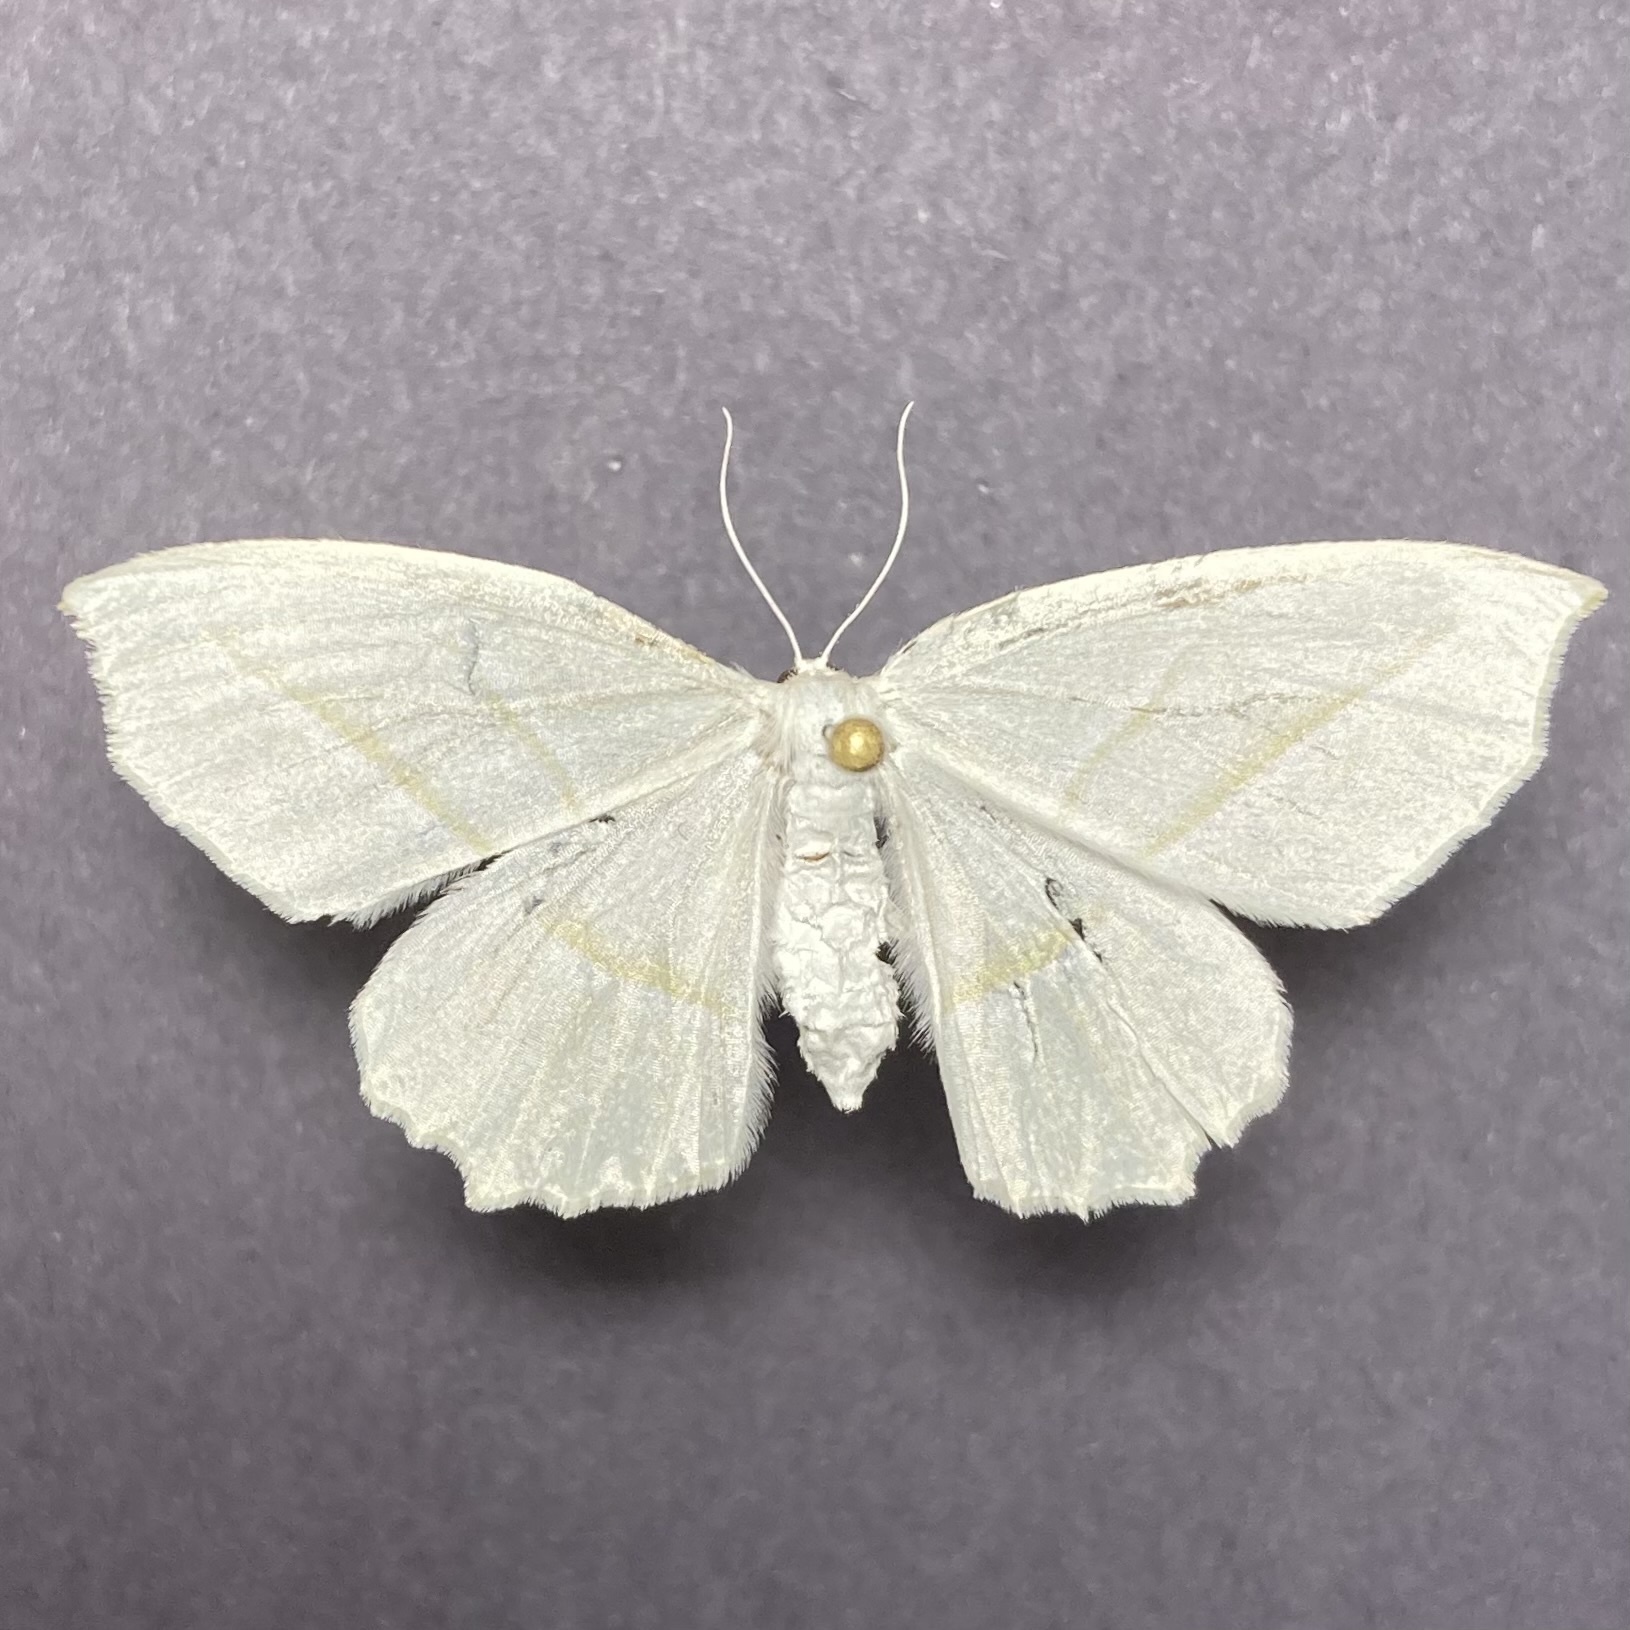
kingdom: Animalia
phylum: Arthropoda
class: Insecta
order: Lepidoptera
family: Geometridae
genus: Campaea
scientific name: Campaea perlata
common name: Fringed looper
